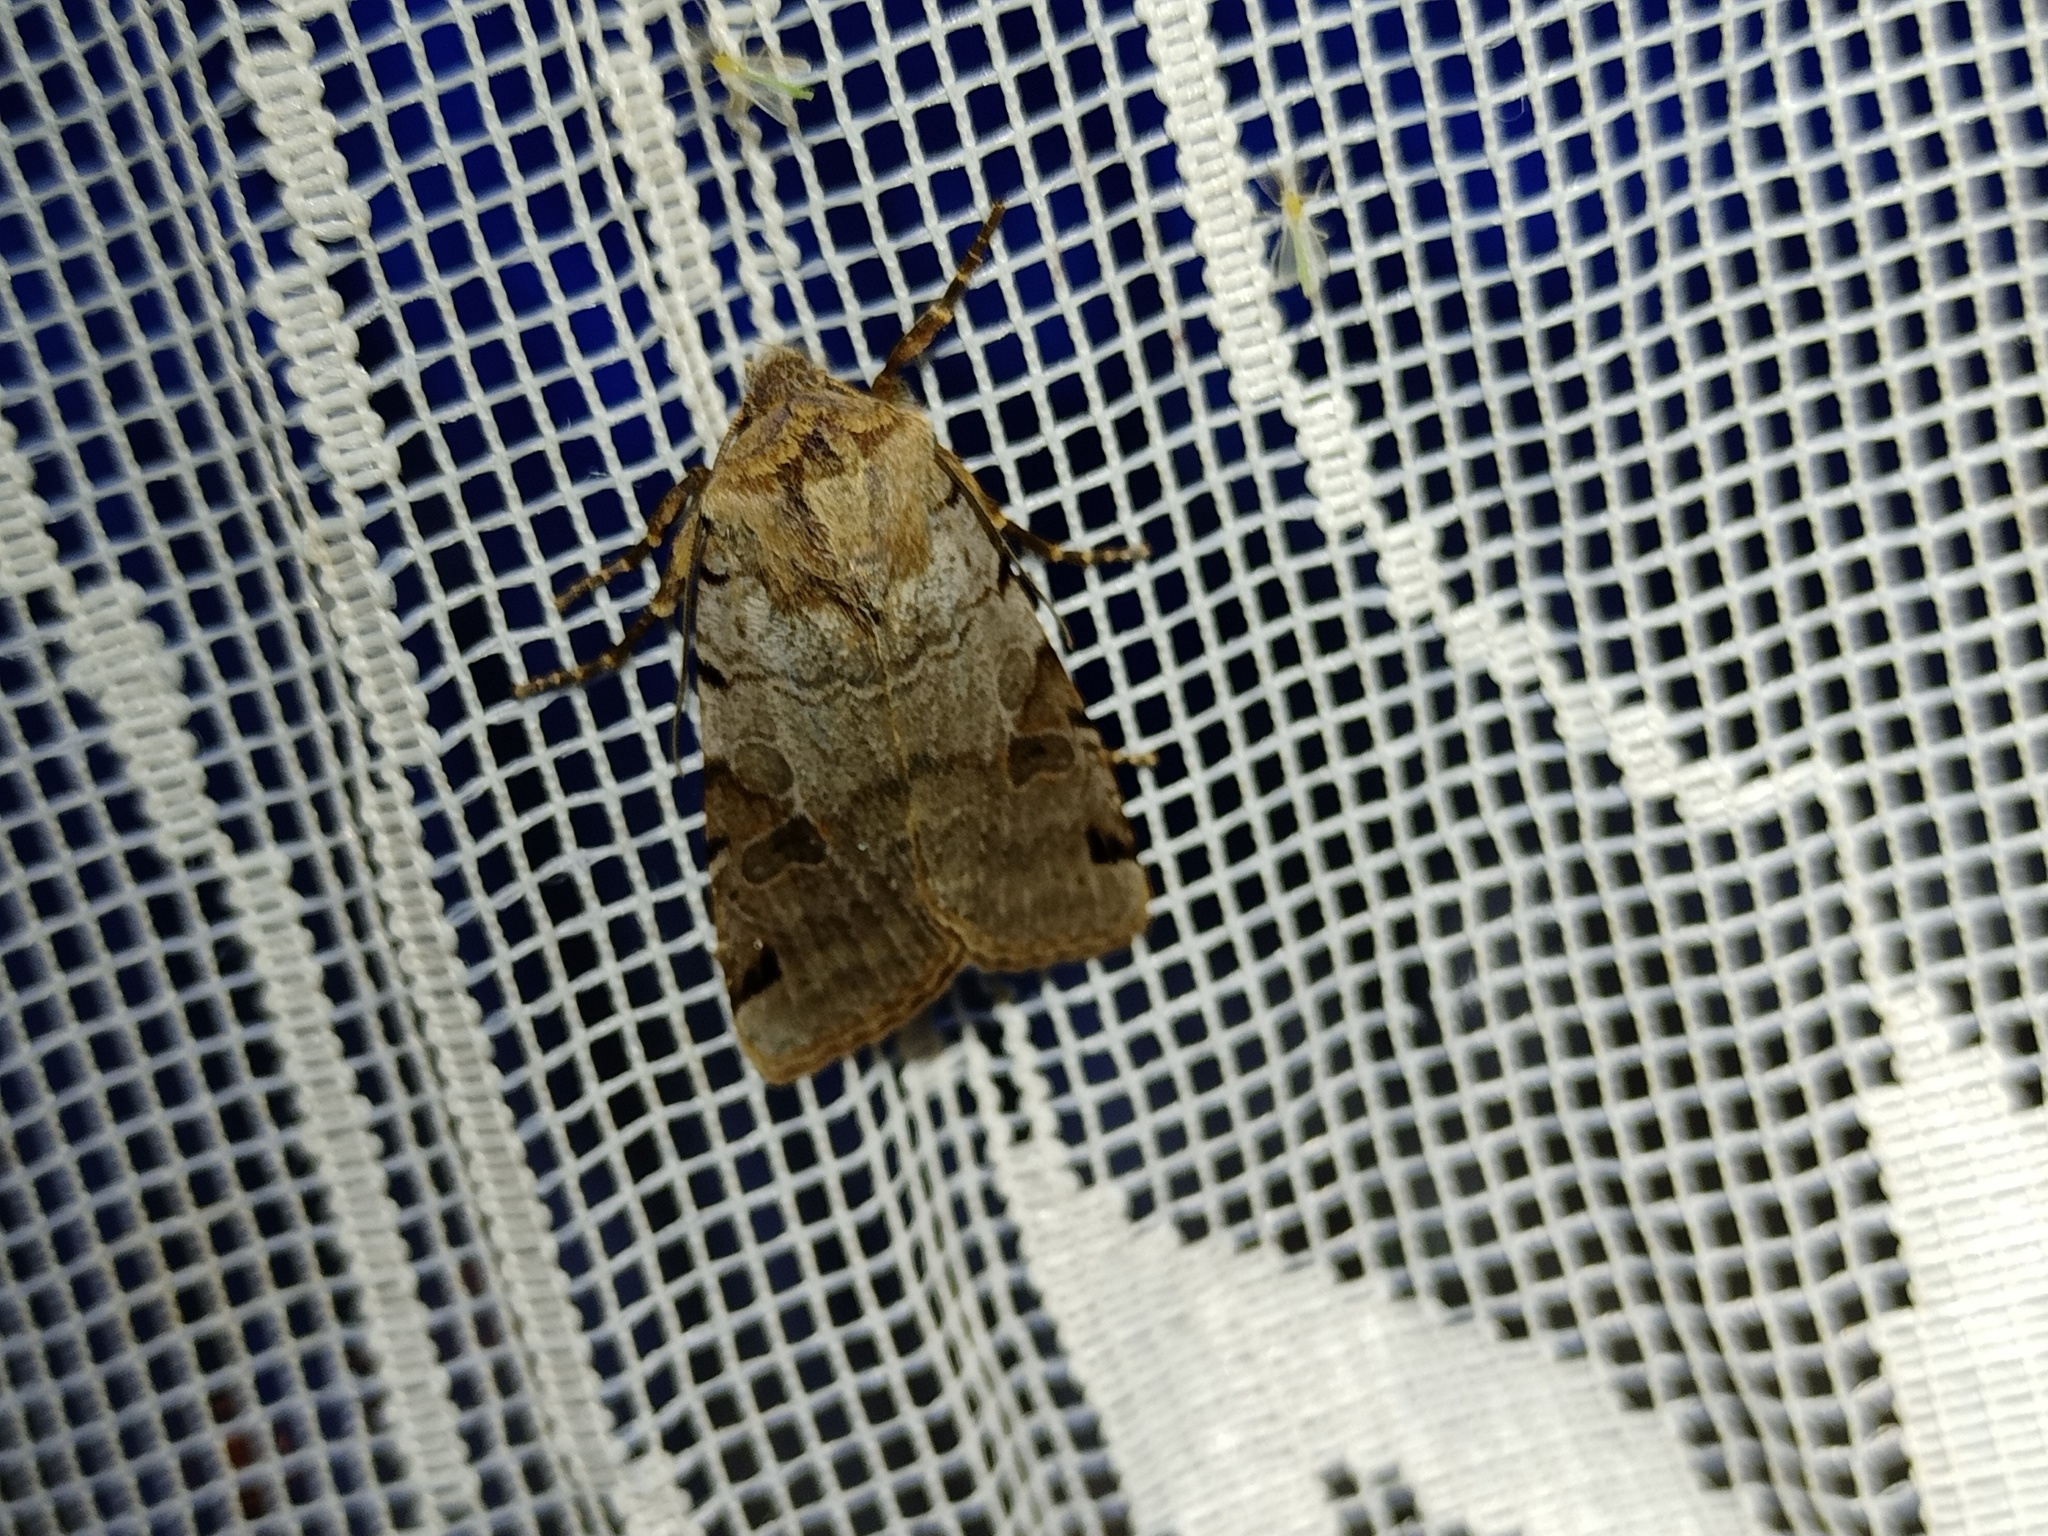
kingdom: Animalia
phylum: Arthropoda
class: Insecta
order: Lepidoptera
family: Noctuidae
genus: Agrochola
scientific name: Agrochola litura
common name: Brown-spot pinion
